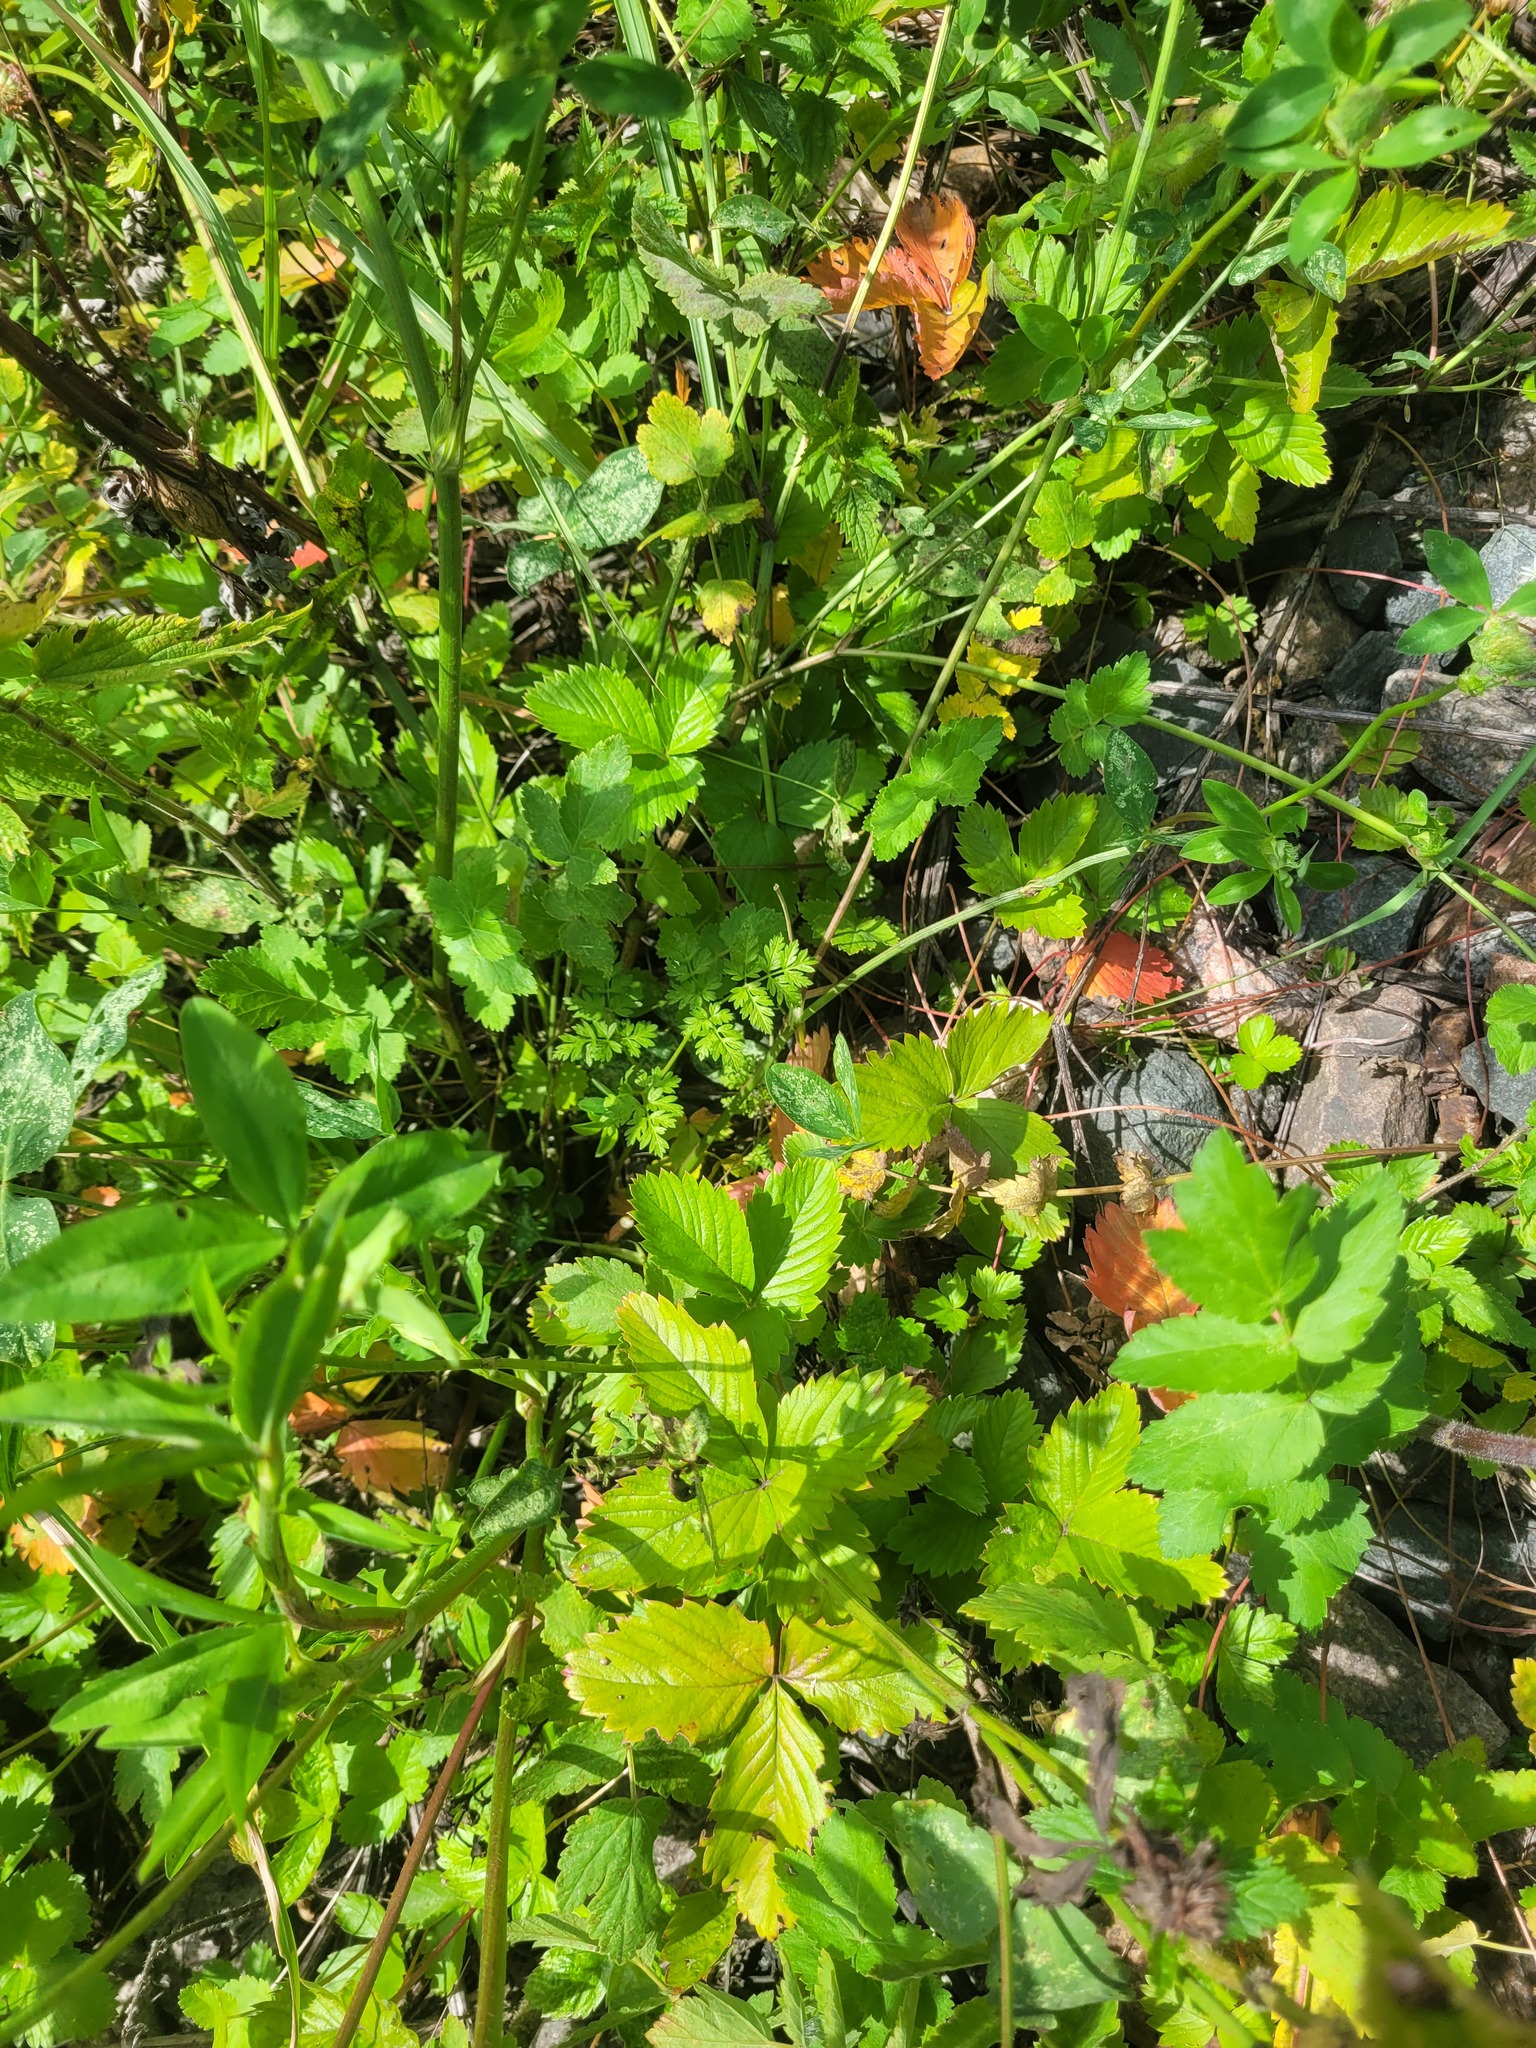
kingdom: Plantae
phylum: Tracheophyta
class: Magnoliopsida
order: Rosales
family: Rosaceae
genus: Fragaria
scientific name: Fragaria vesca
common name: Wild strawberry
